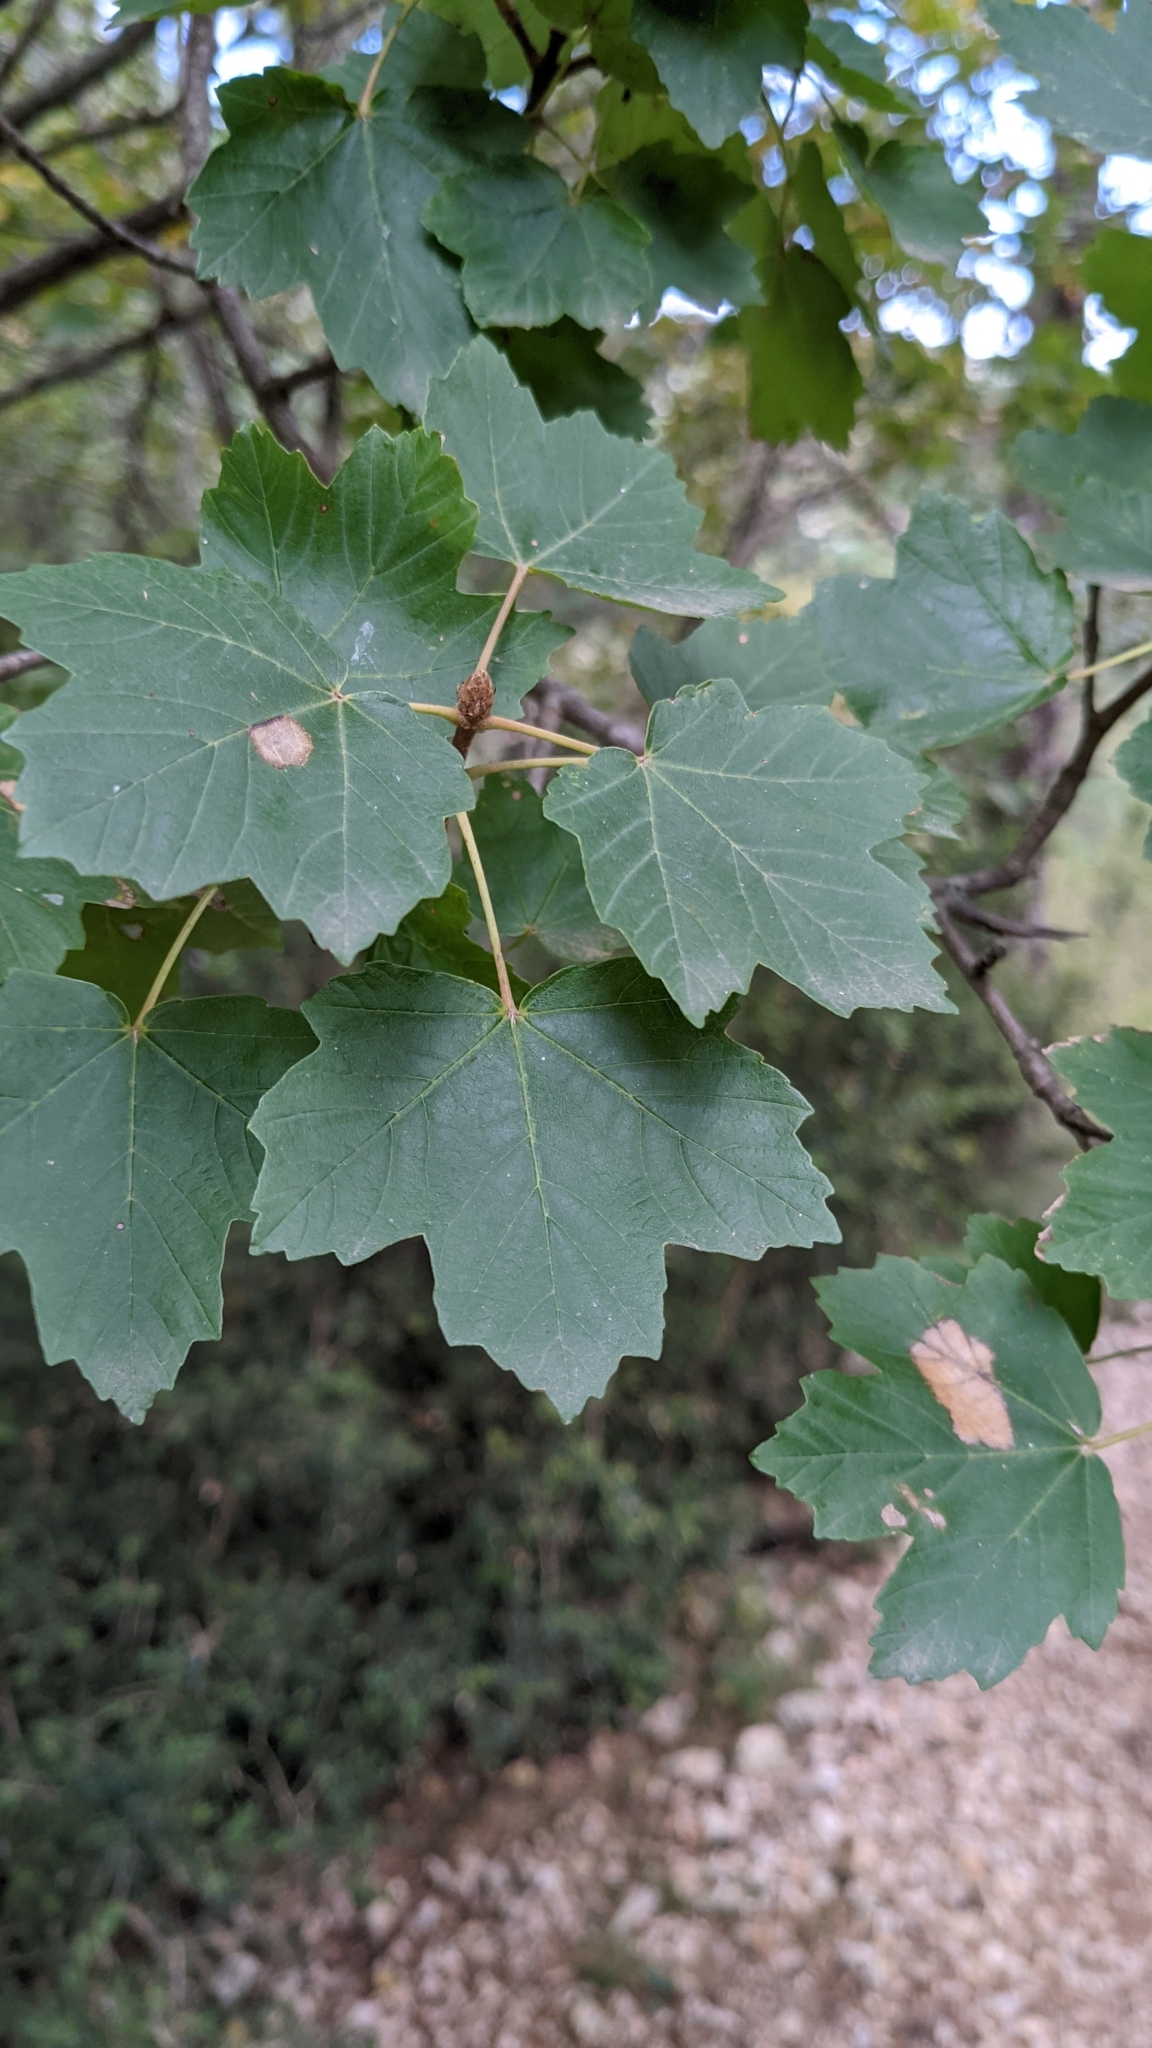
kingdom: Plantae
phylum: Tracheophyta
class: Magnoliopsida
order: Sapindales
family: Sapindaceae
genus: Acer
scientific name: Acer opalus
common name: Italian maple
